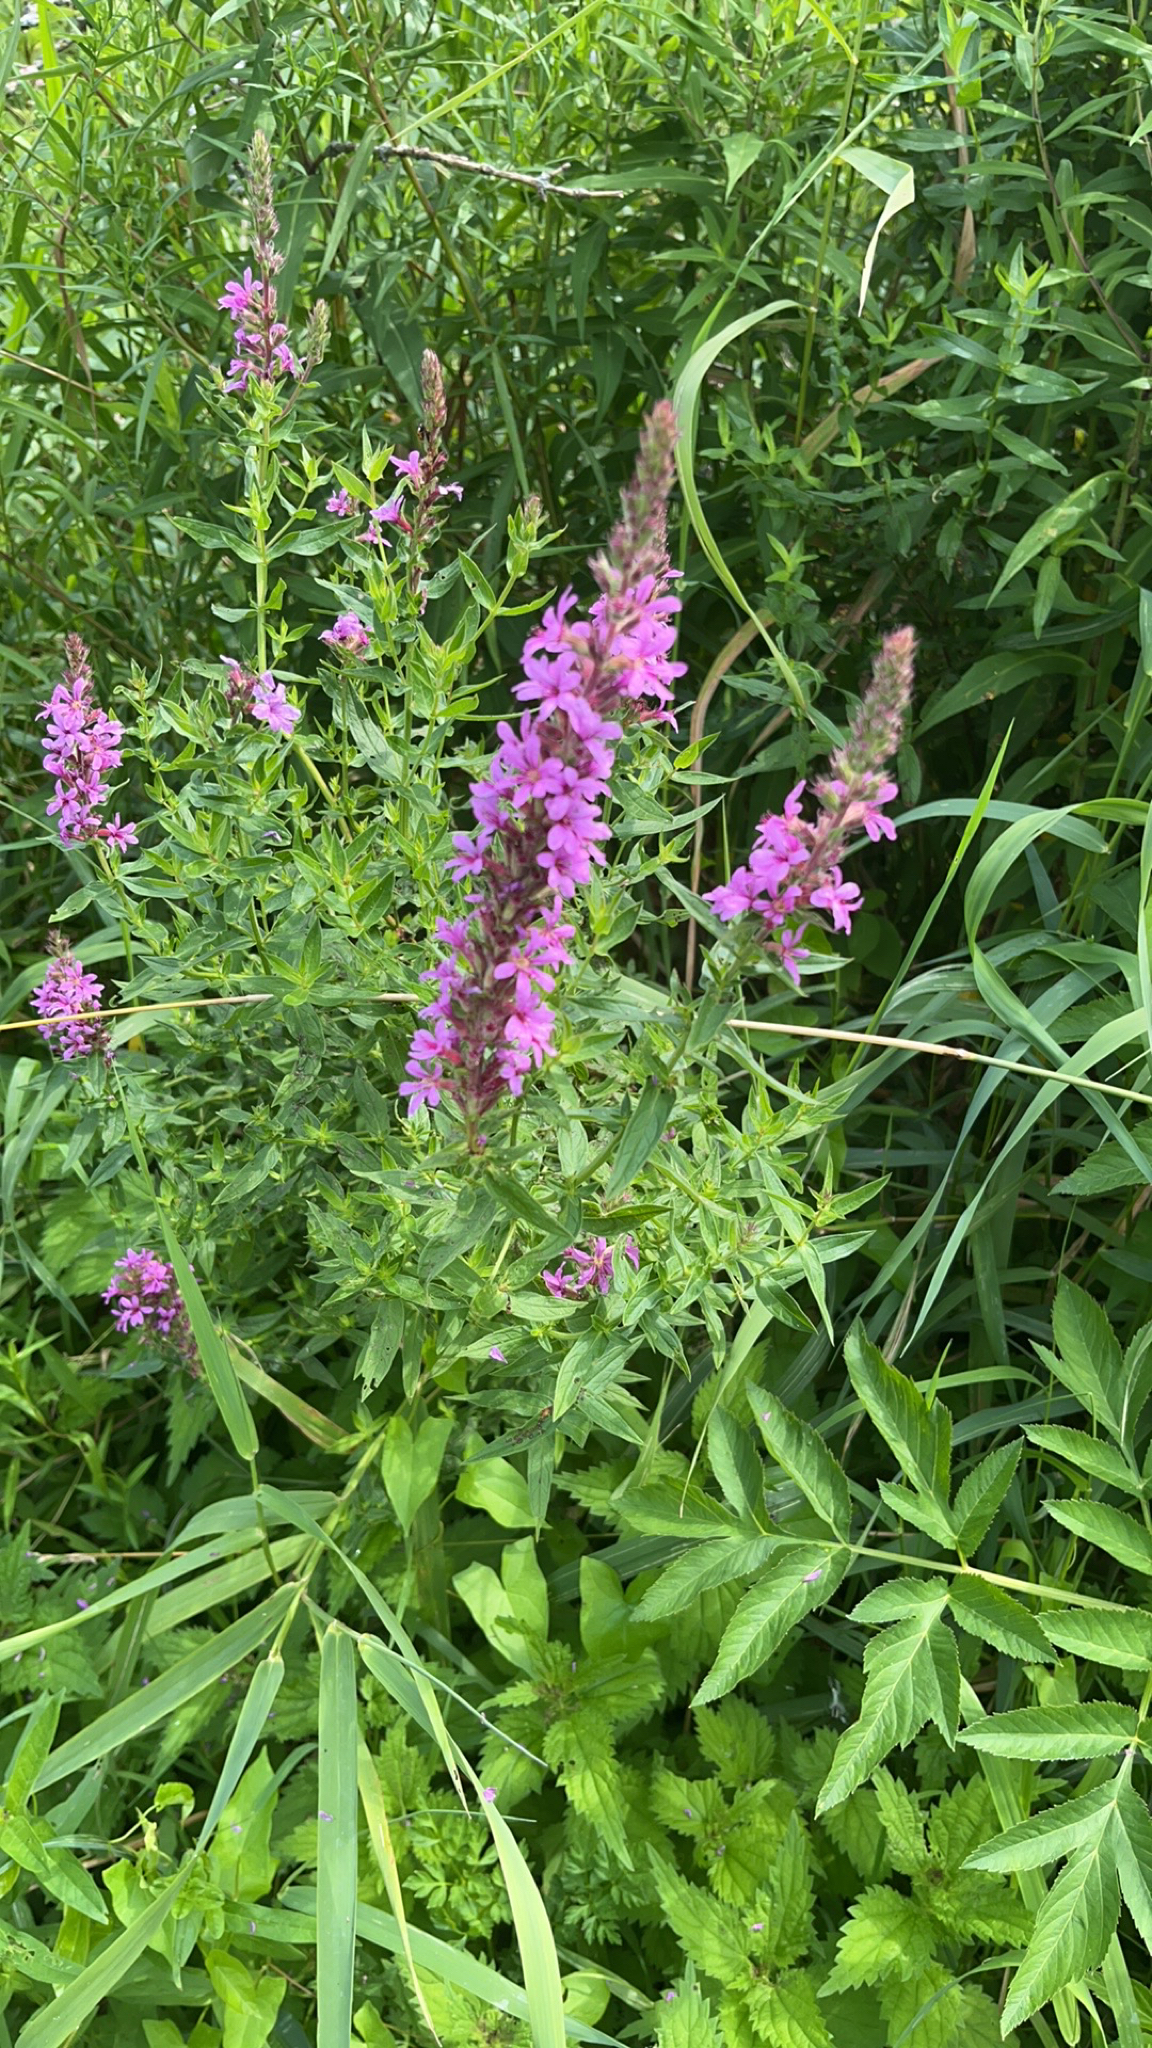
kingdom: Plantae
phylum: Tracheophyta
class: Magnoliopsida
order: Myrtales
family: Lythraceae
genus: Lythrum
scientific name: Lythrum salicaria
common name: Purple loosestrife
